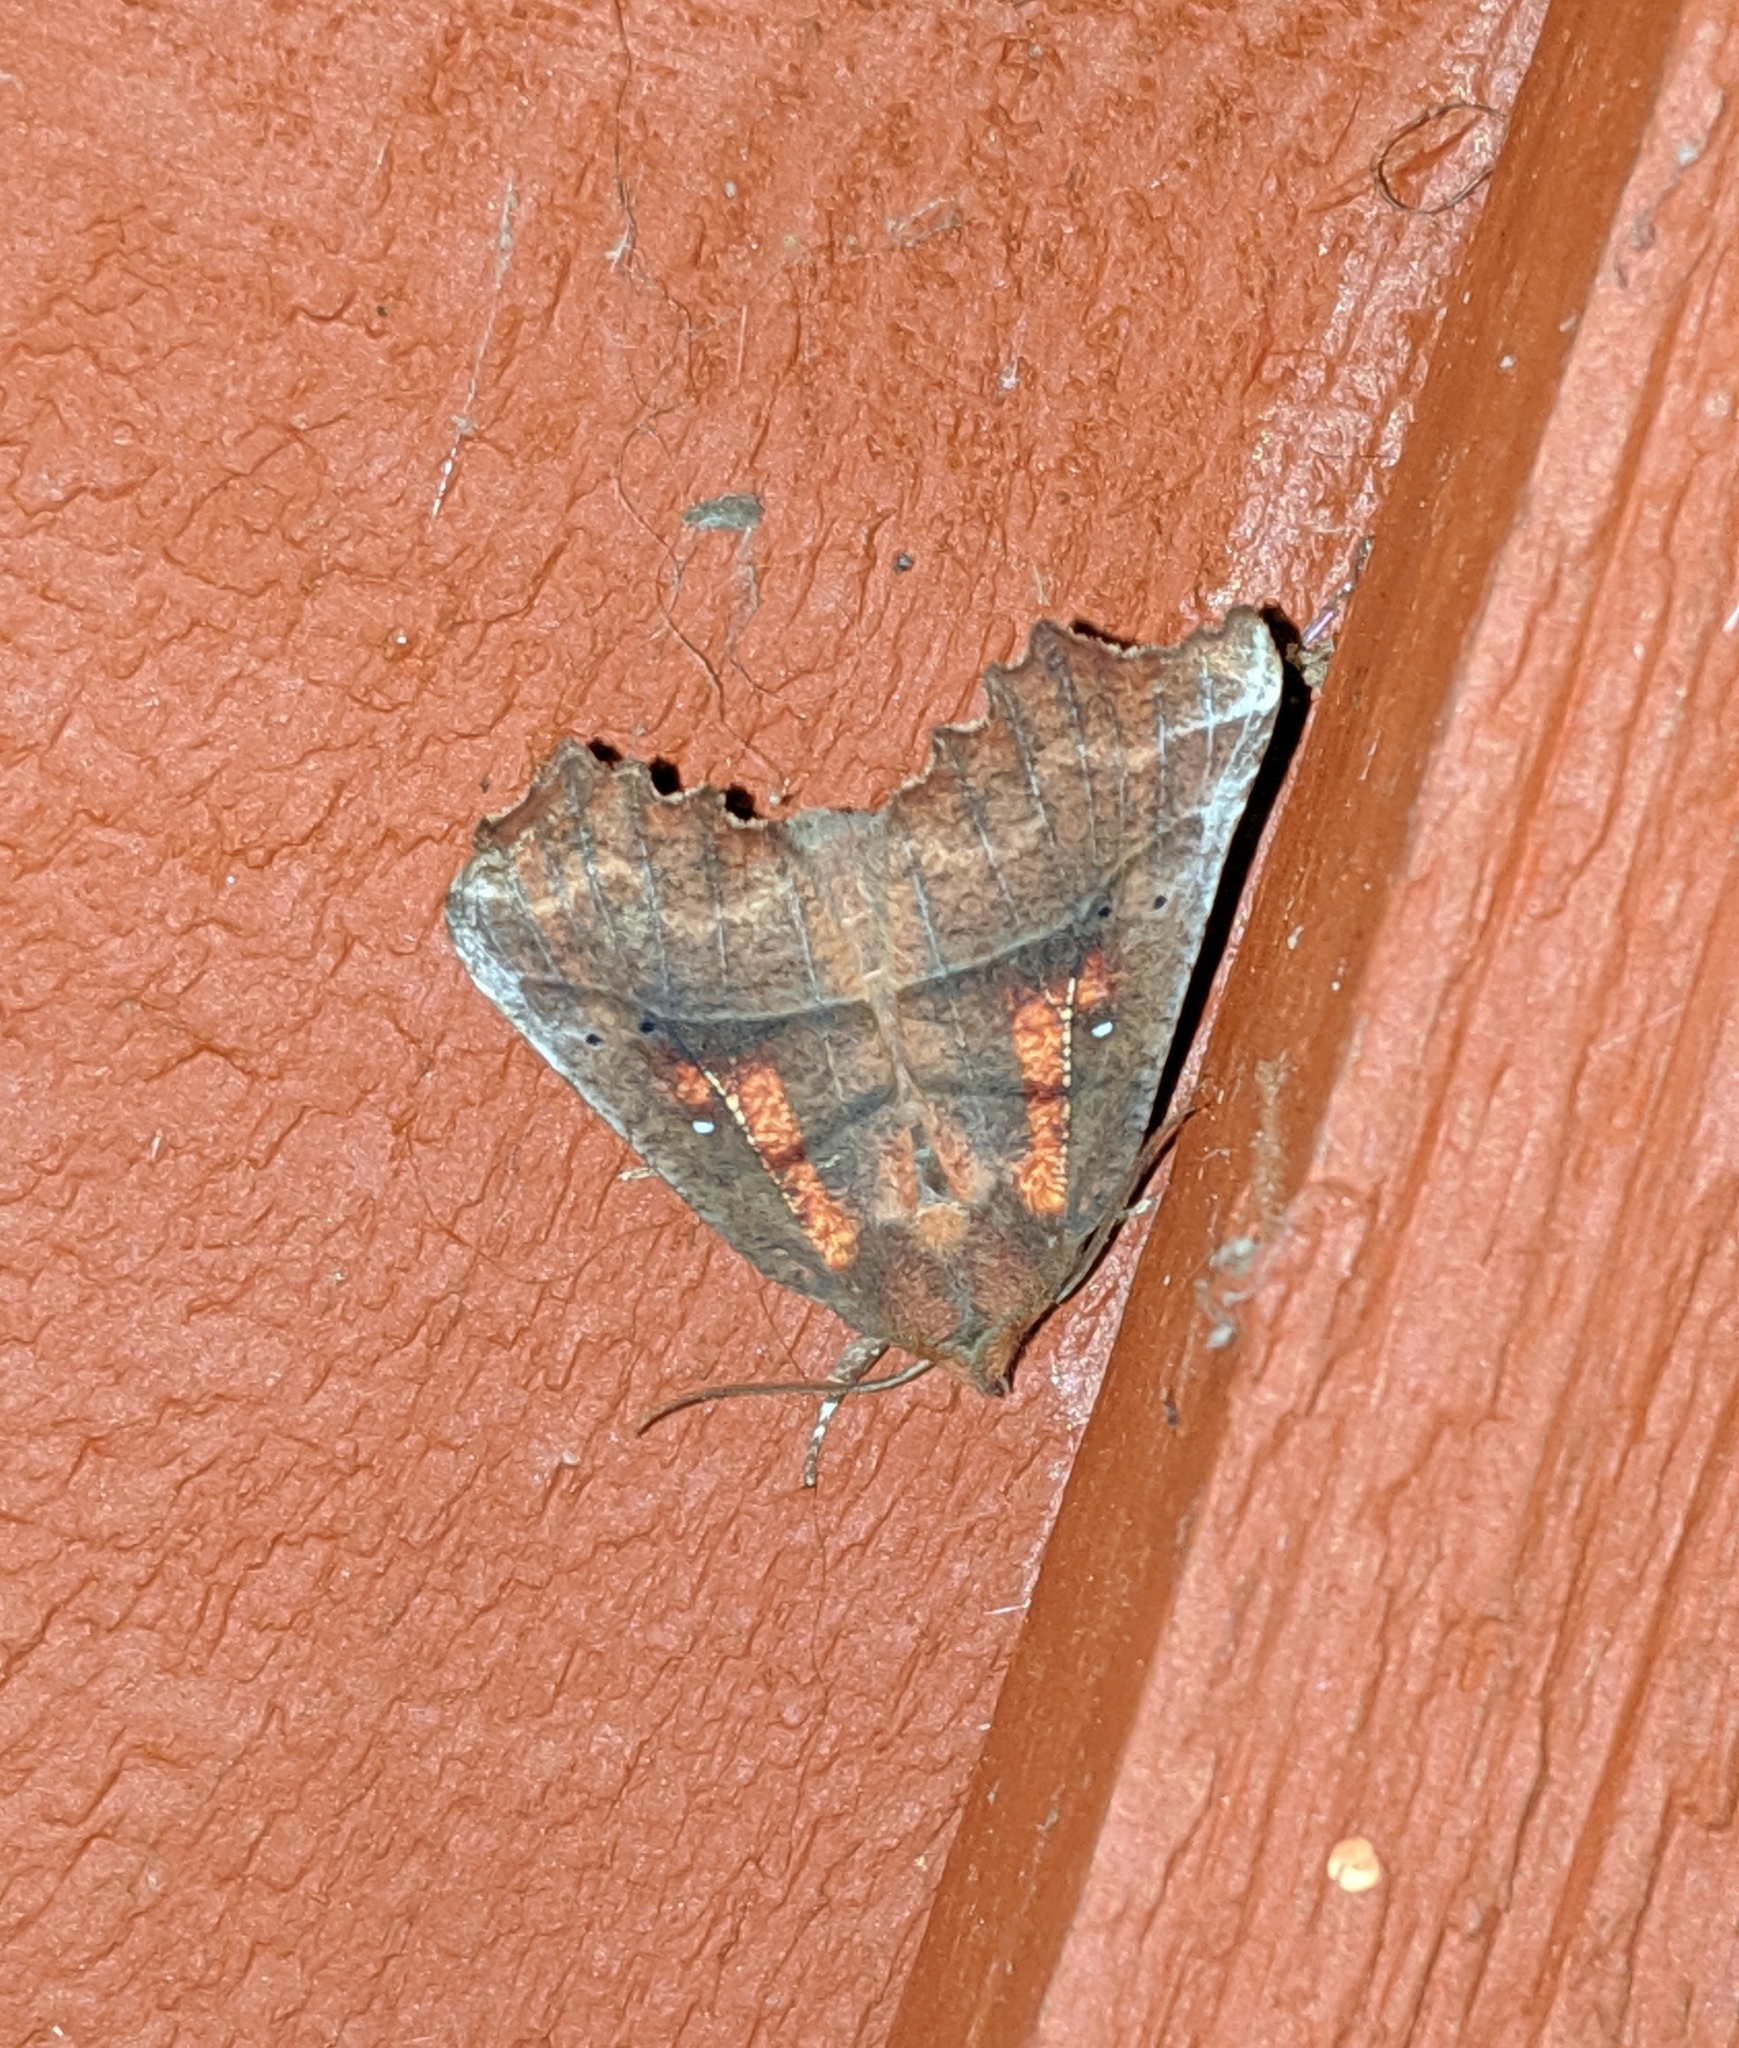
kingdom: Animalia
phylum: Arthropoda
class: Insecta
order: Lepidoptera
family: Erebidae
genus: Scoliopteryx
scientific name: Scoliopteryx libatrix
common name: Herald
